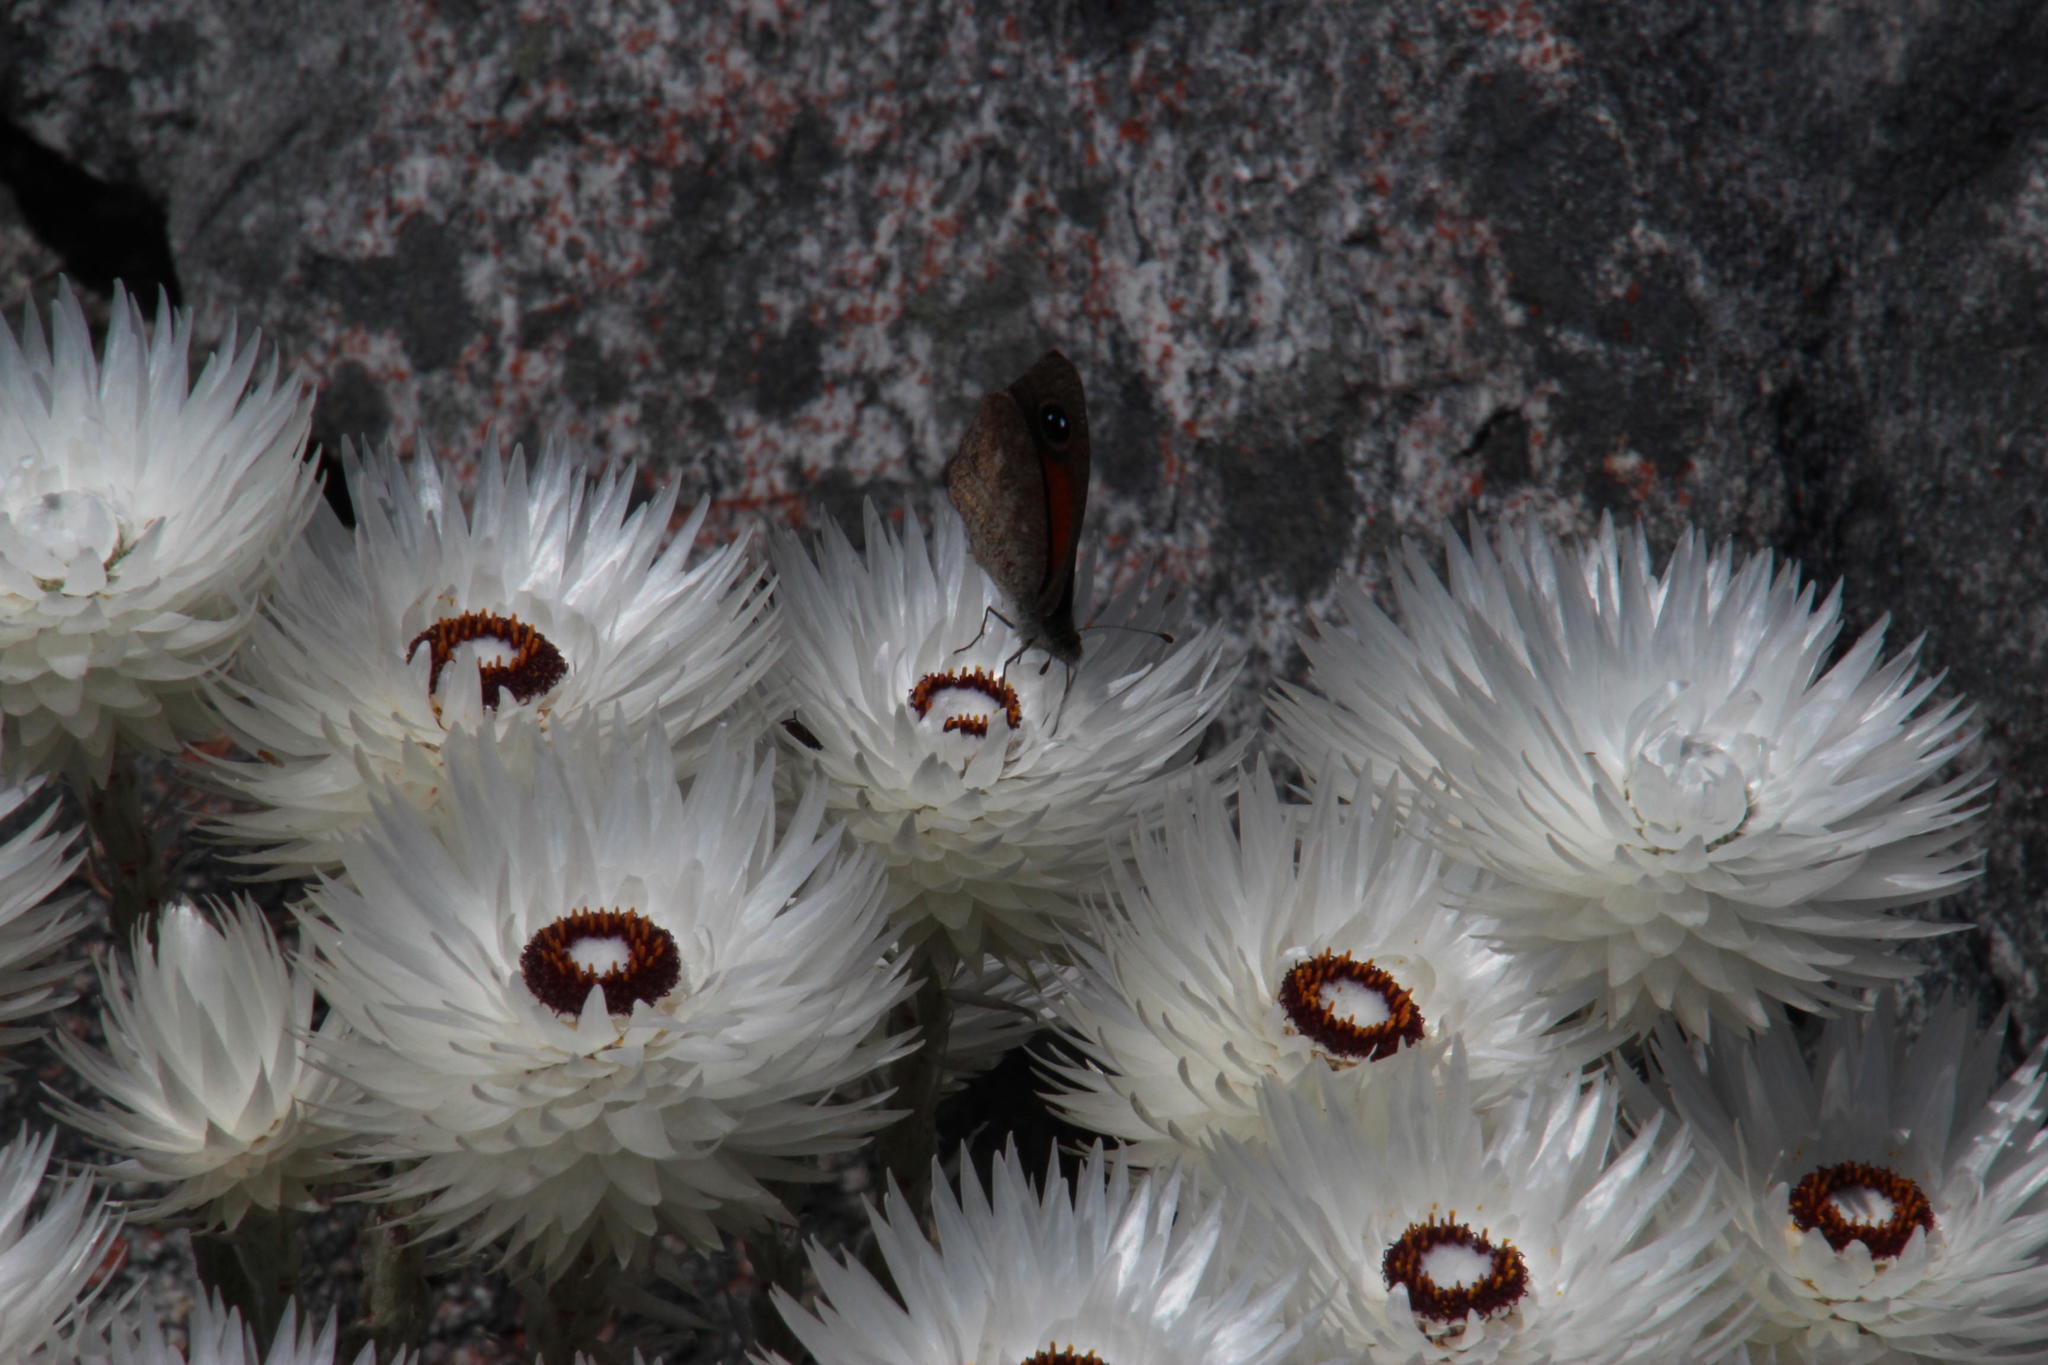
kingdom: Animalia
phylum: Arthropoda
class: Insecta
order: Lepidoptera
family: Nymphalidae
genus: Stygionympha
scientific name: Stygionympha vigilans
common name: Western hillside brown
